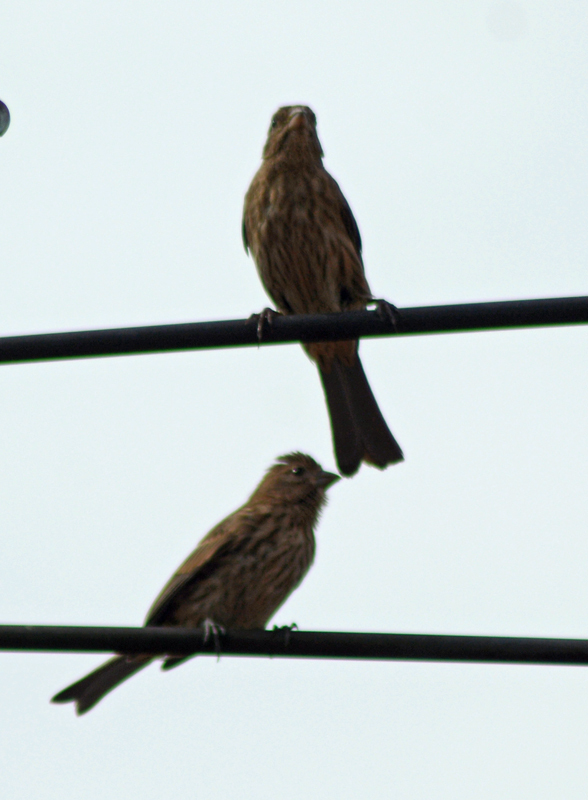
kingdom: Animalia
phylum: Chordata
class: Aves
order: Passeriformes
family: Fringillidae
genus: Haemorhous
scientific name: Haemorhous mexicanus
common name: House finch
